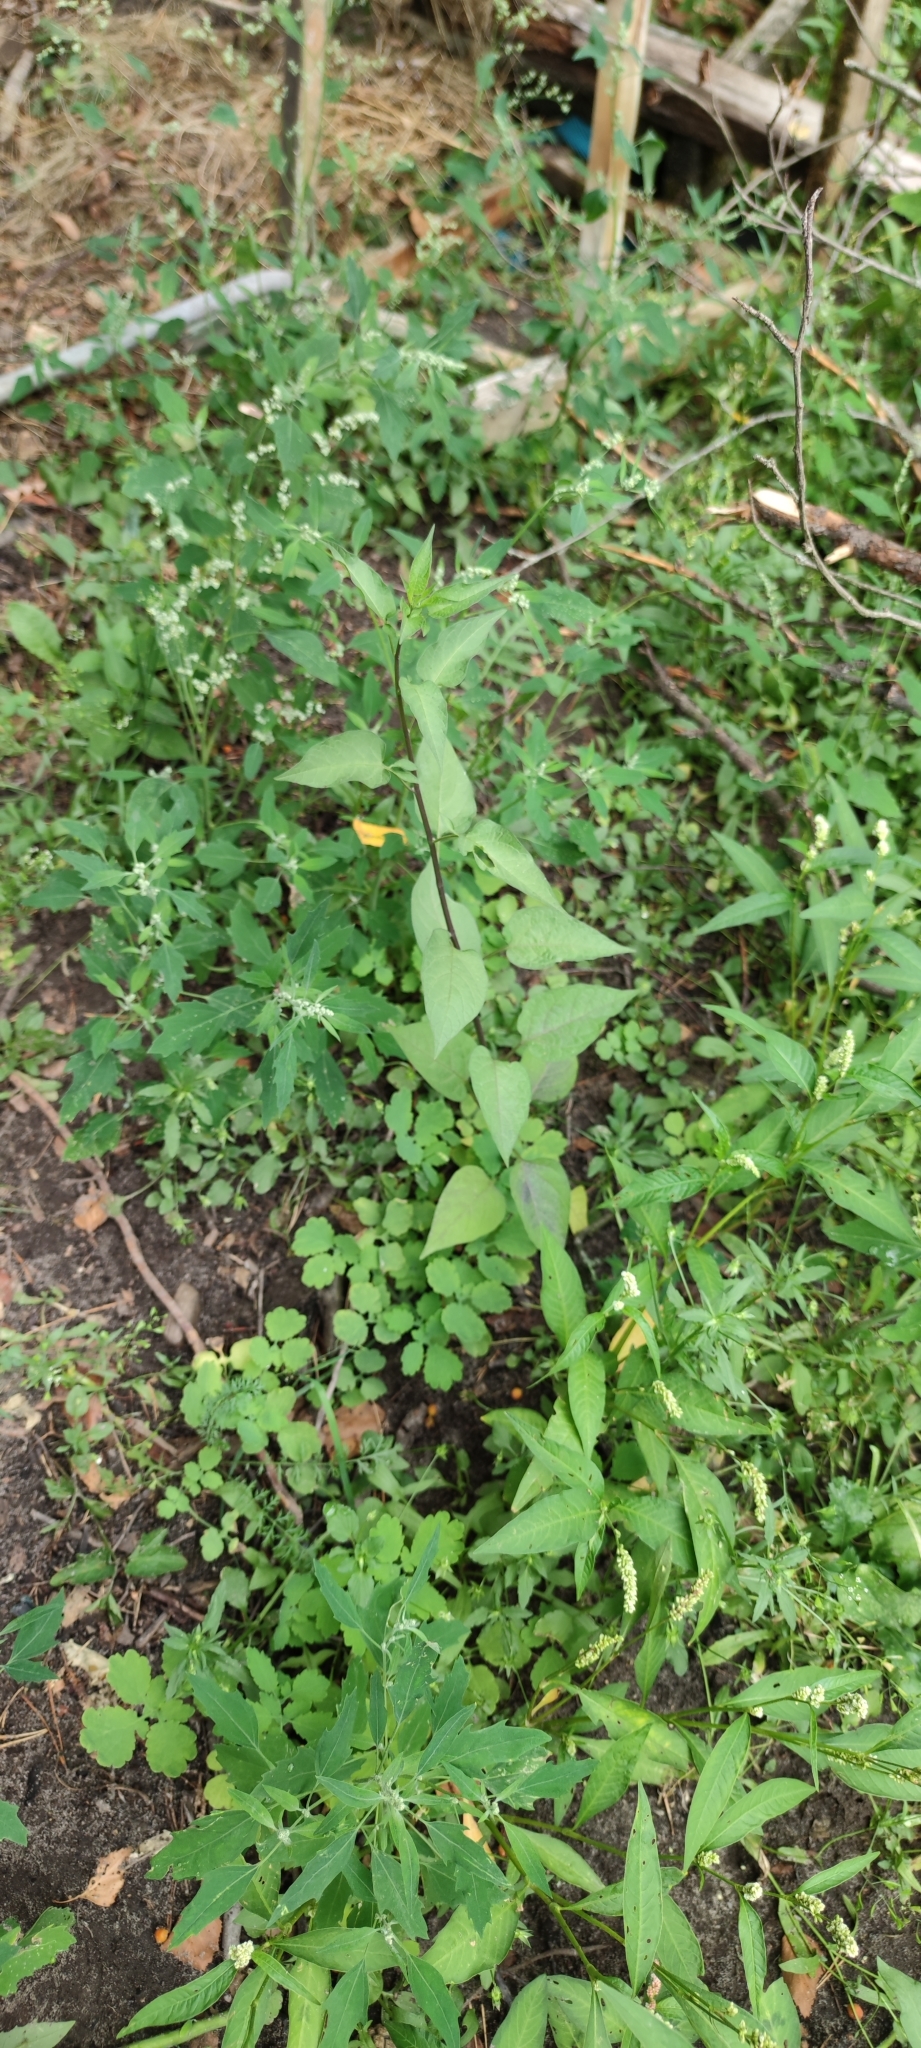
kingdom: Plantae
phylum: Tracheophyta
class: Magnoliopsida
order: Solanales
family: Solanaceae
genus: Solanum
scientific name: Solanum dulcamara
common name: Climbing nightshade
